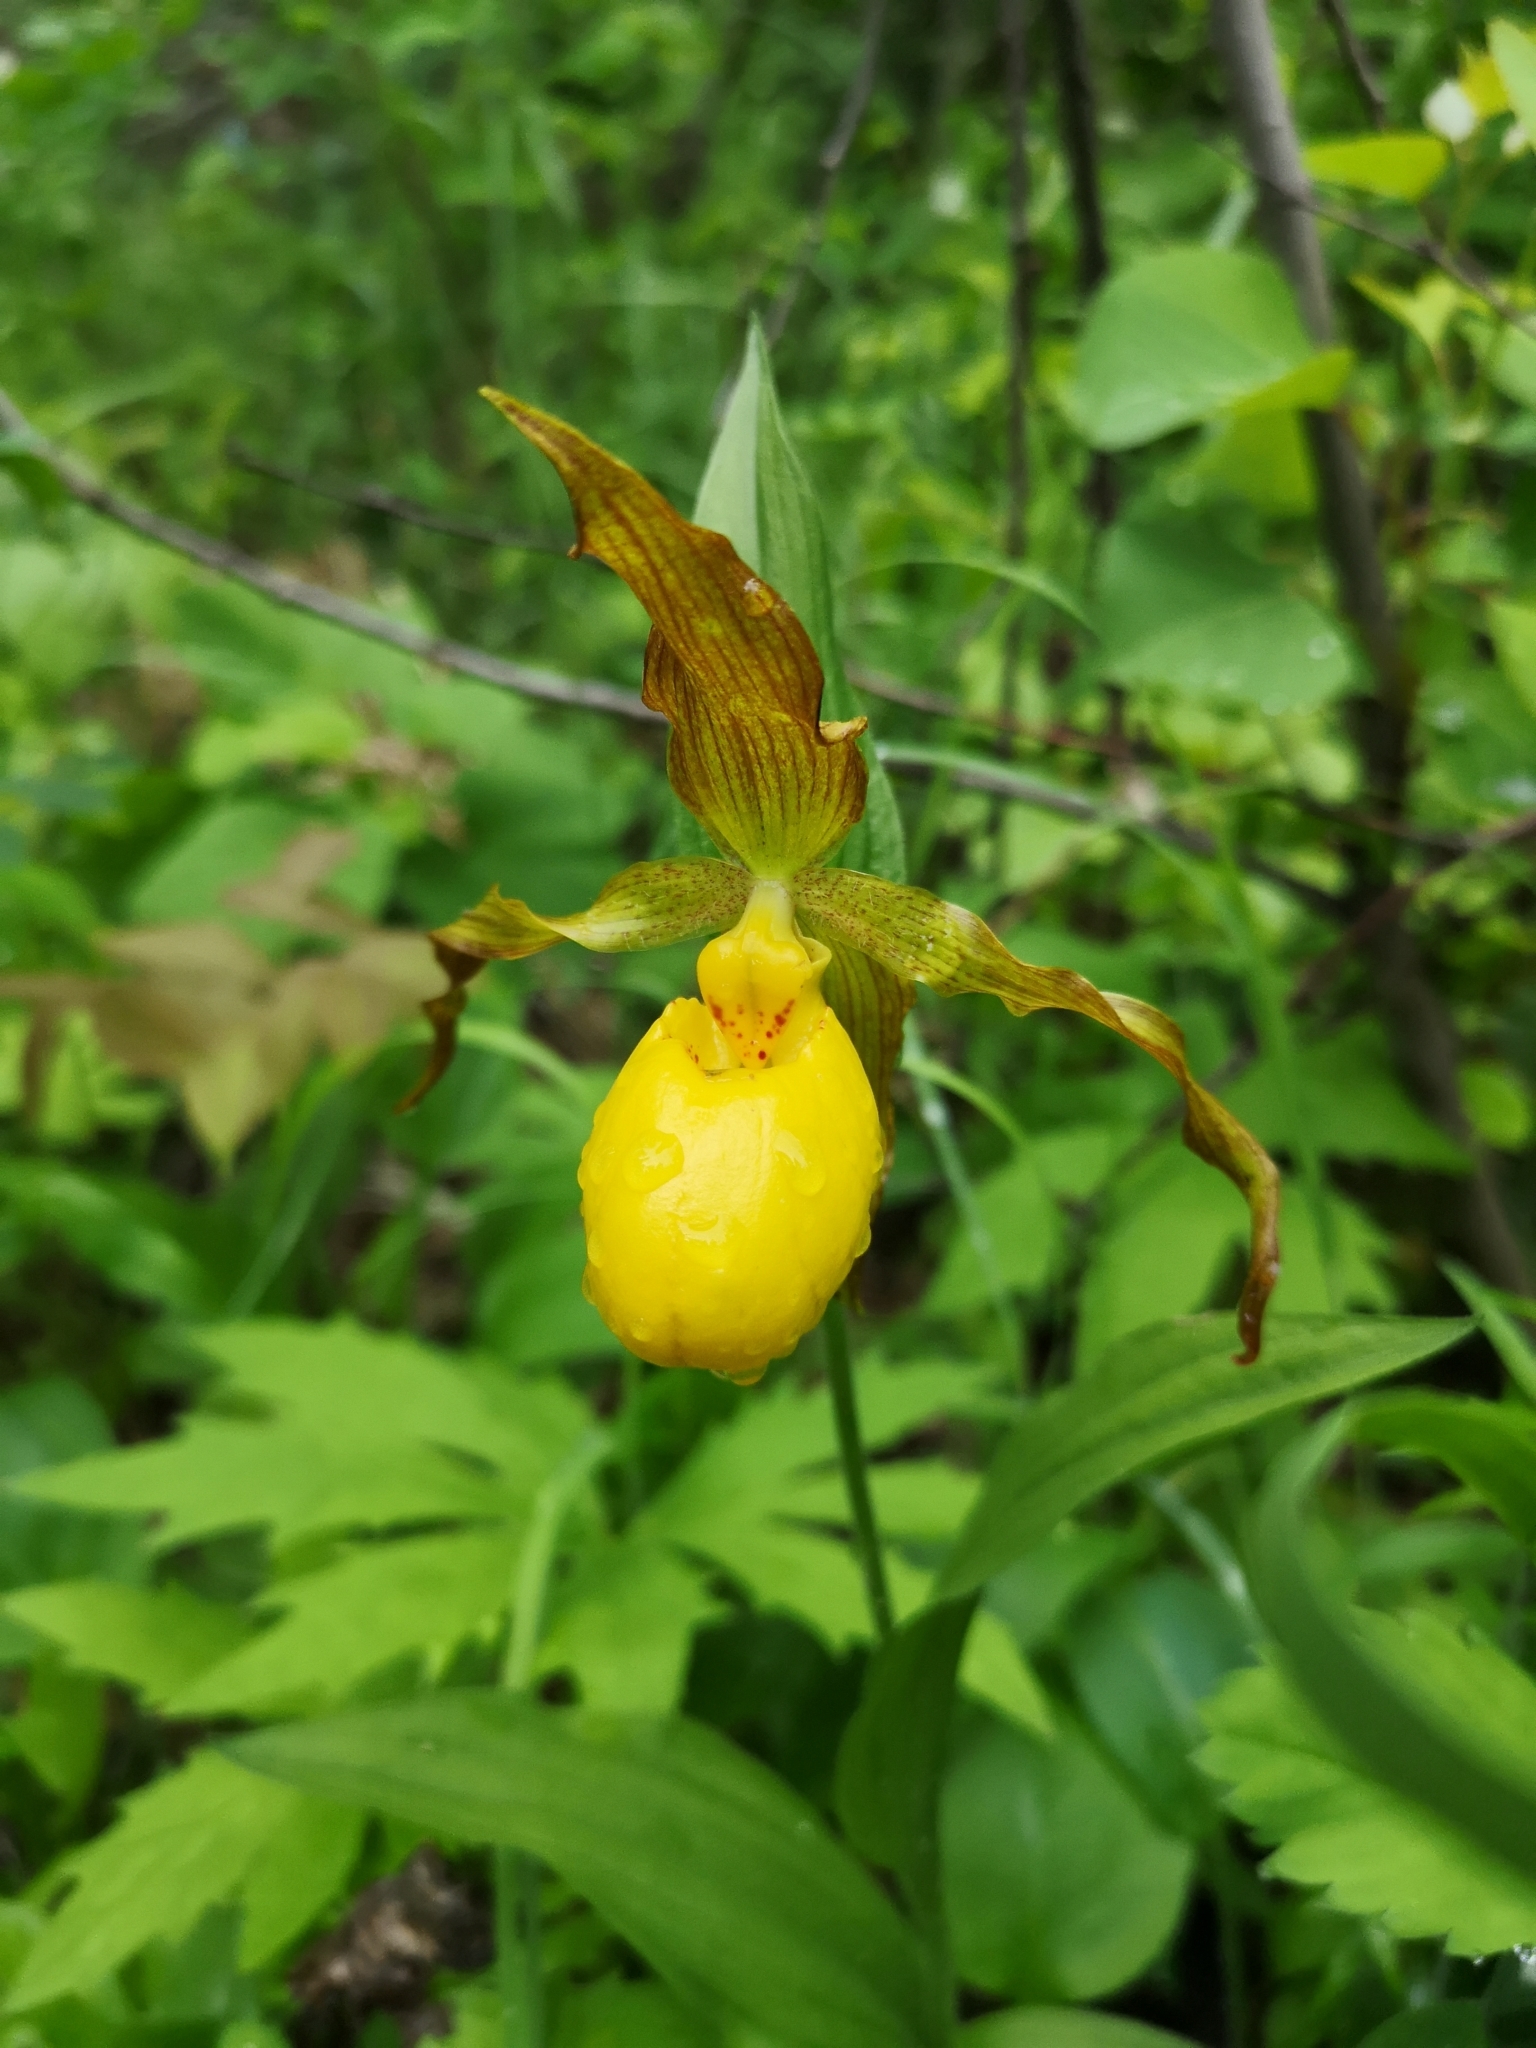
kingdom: Plantae
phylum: Tracheophyta
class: Liliopsida
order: Asparagales
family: Orchidaceae
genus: Cypripedium
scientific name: Cypripedium parviflorum
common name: American yellow lady's-slipper
